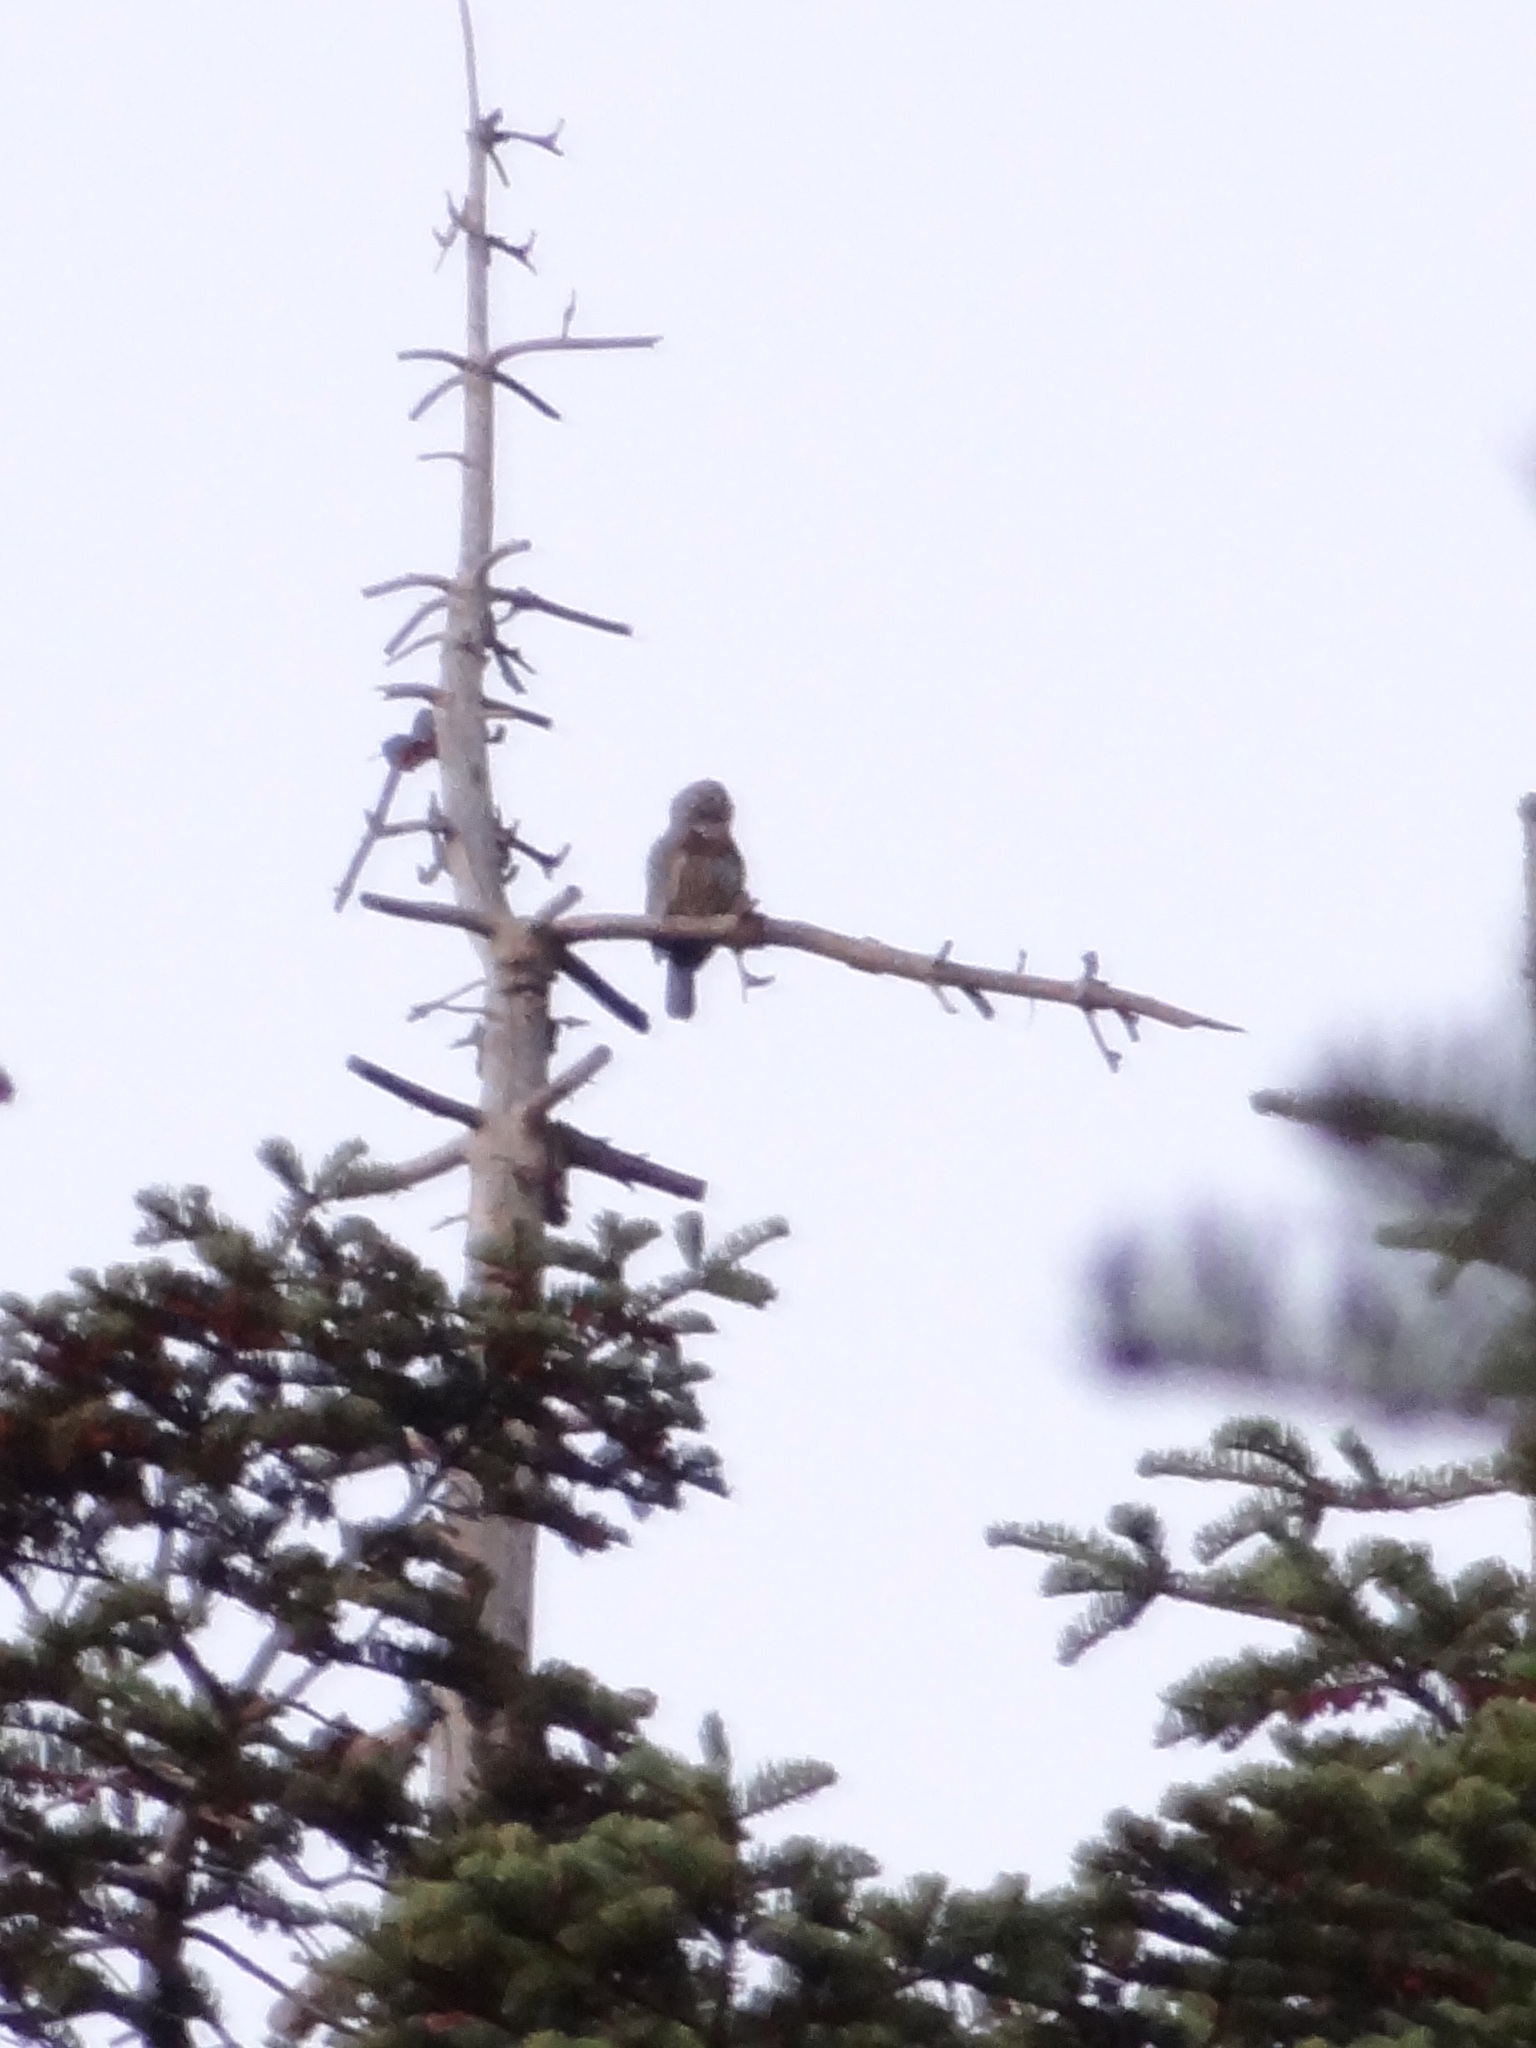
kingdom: Animalia
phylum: Chordata
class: Aves
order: Strigiformes
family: Strigidae
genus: Glaucidium
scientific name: Glaucidium gnoma
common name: Northern pygmy-owl
